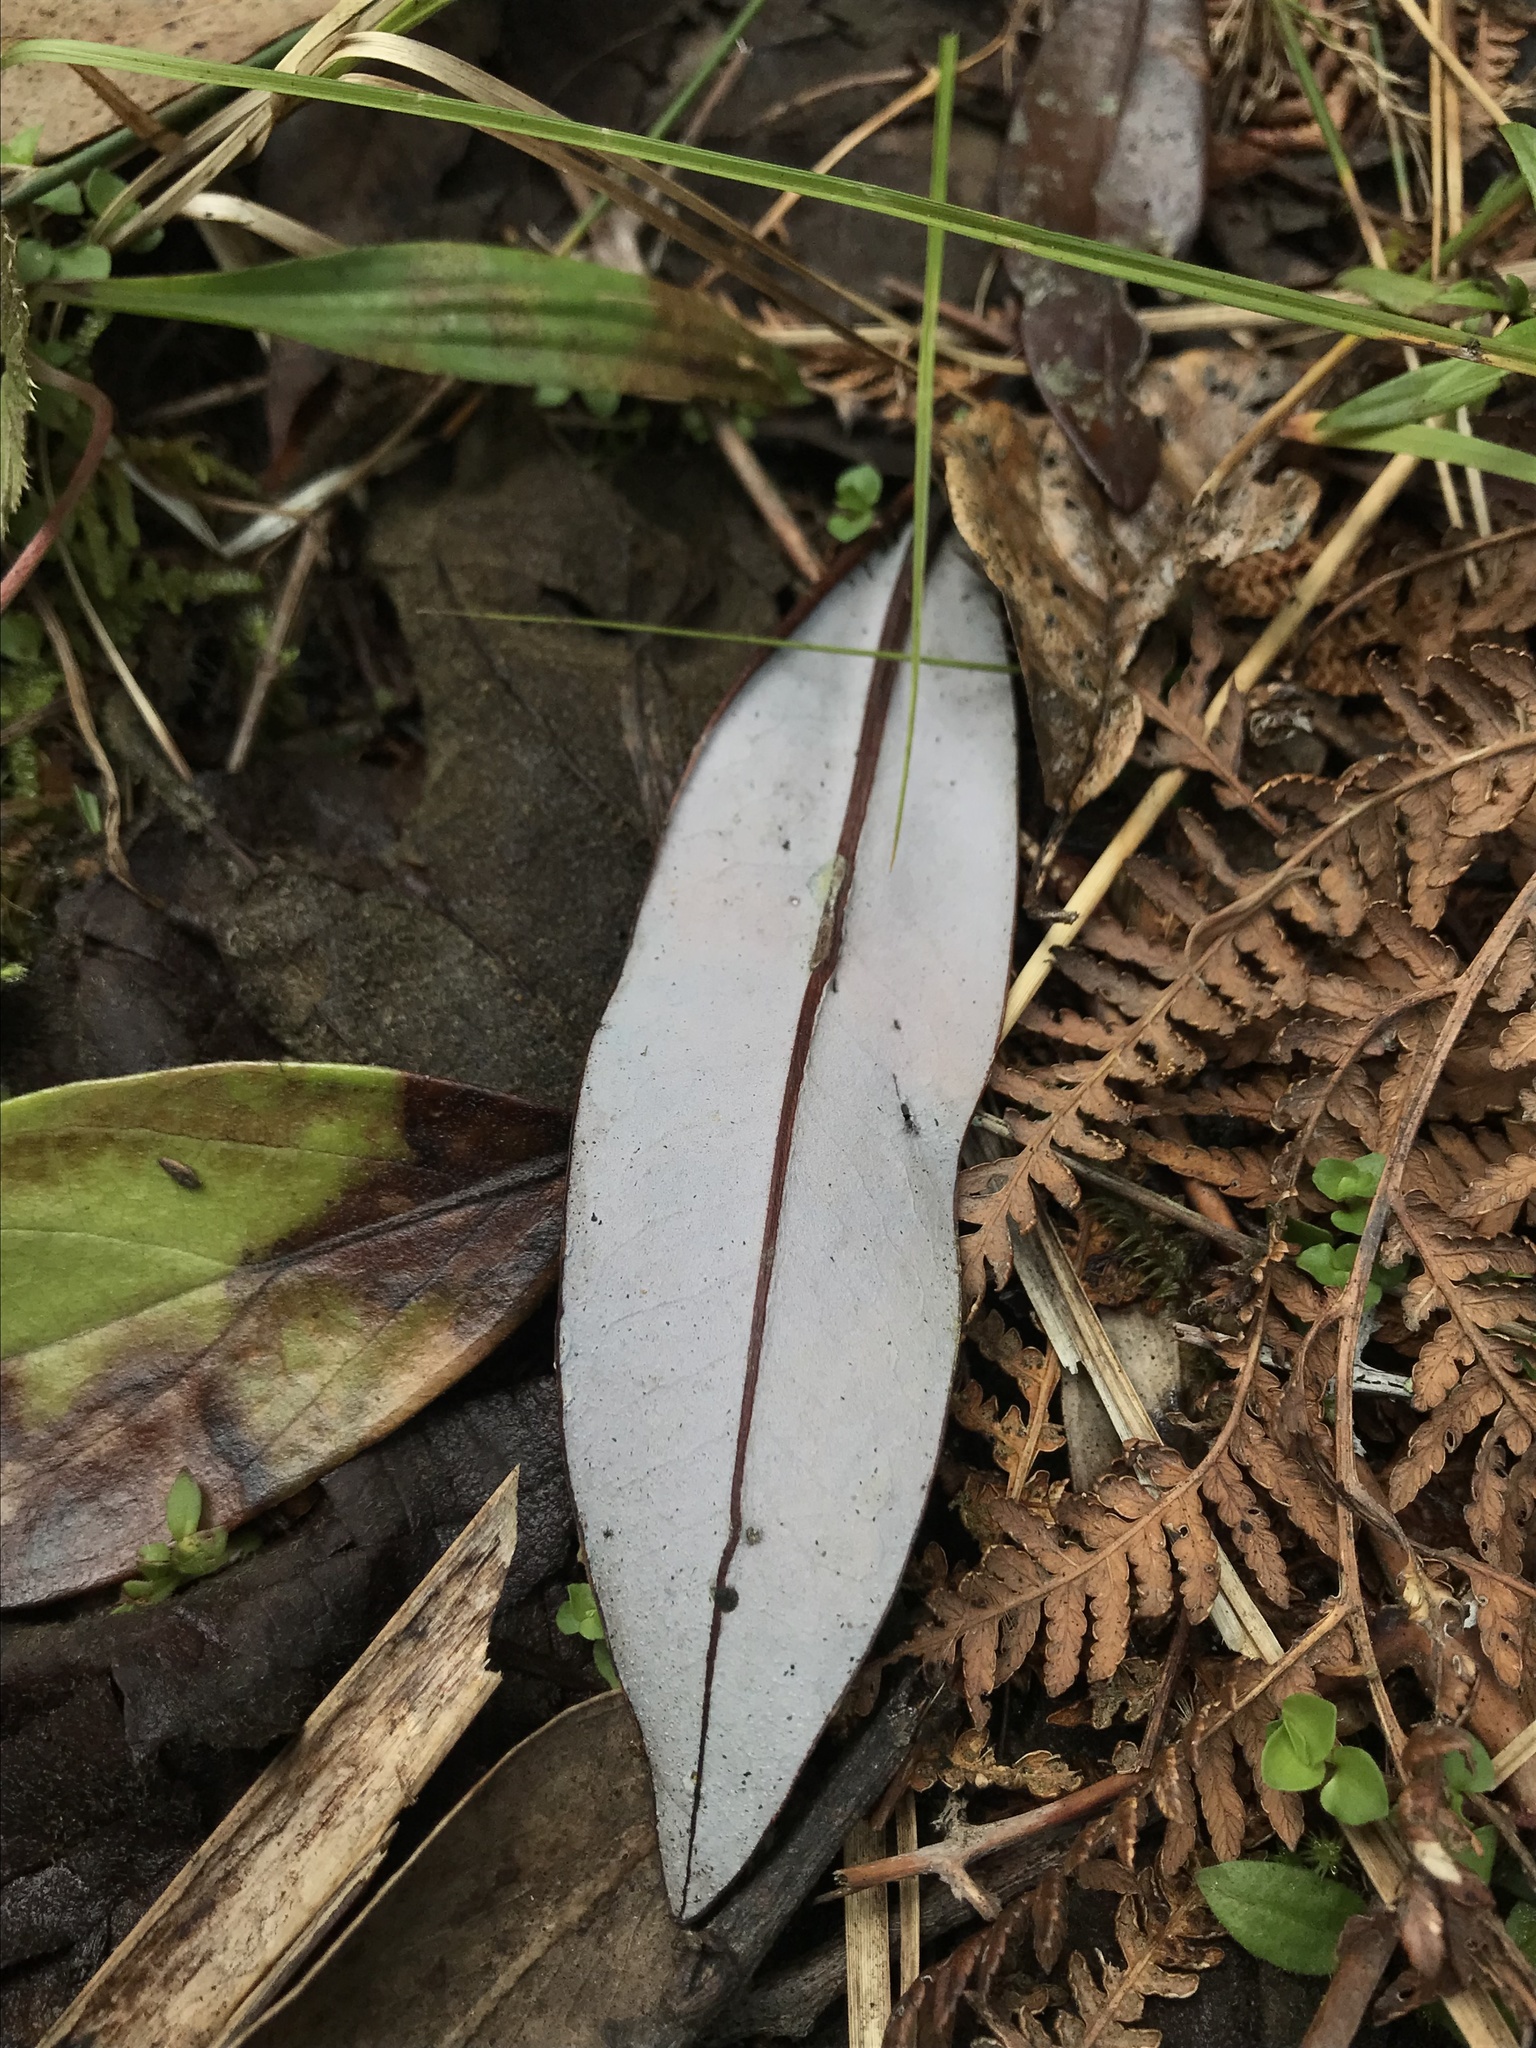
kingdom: Plantae
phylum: Tracheophyta
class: Magnoliopsida
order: Canellales
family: Winteraceae
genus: Drimys
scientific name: Drimys granadensis
